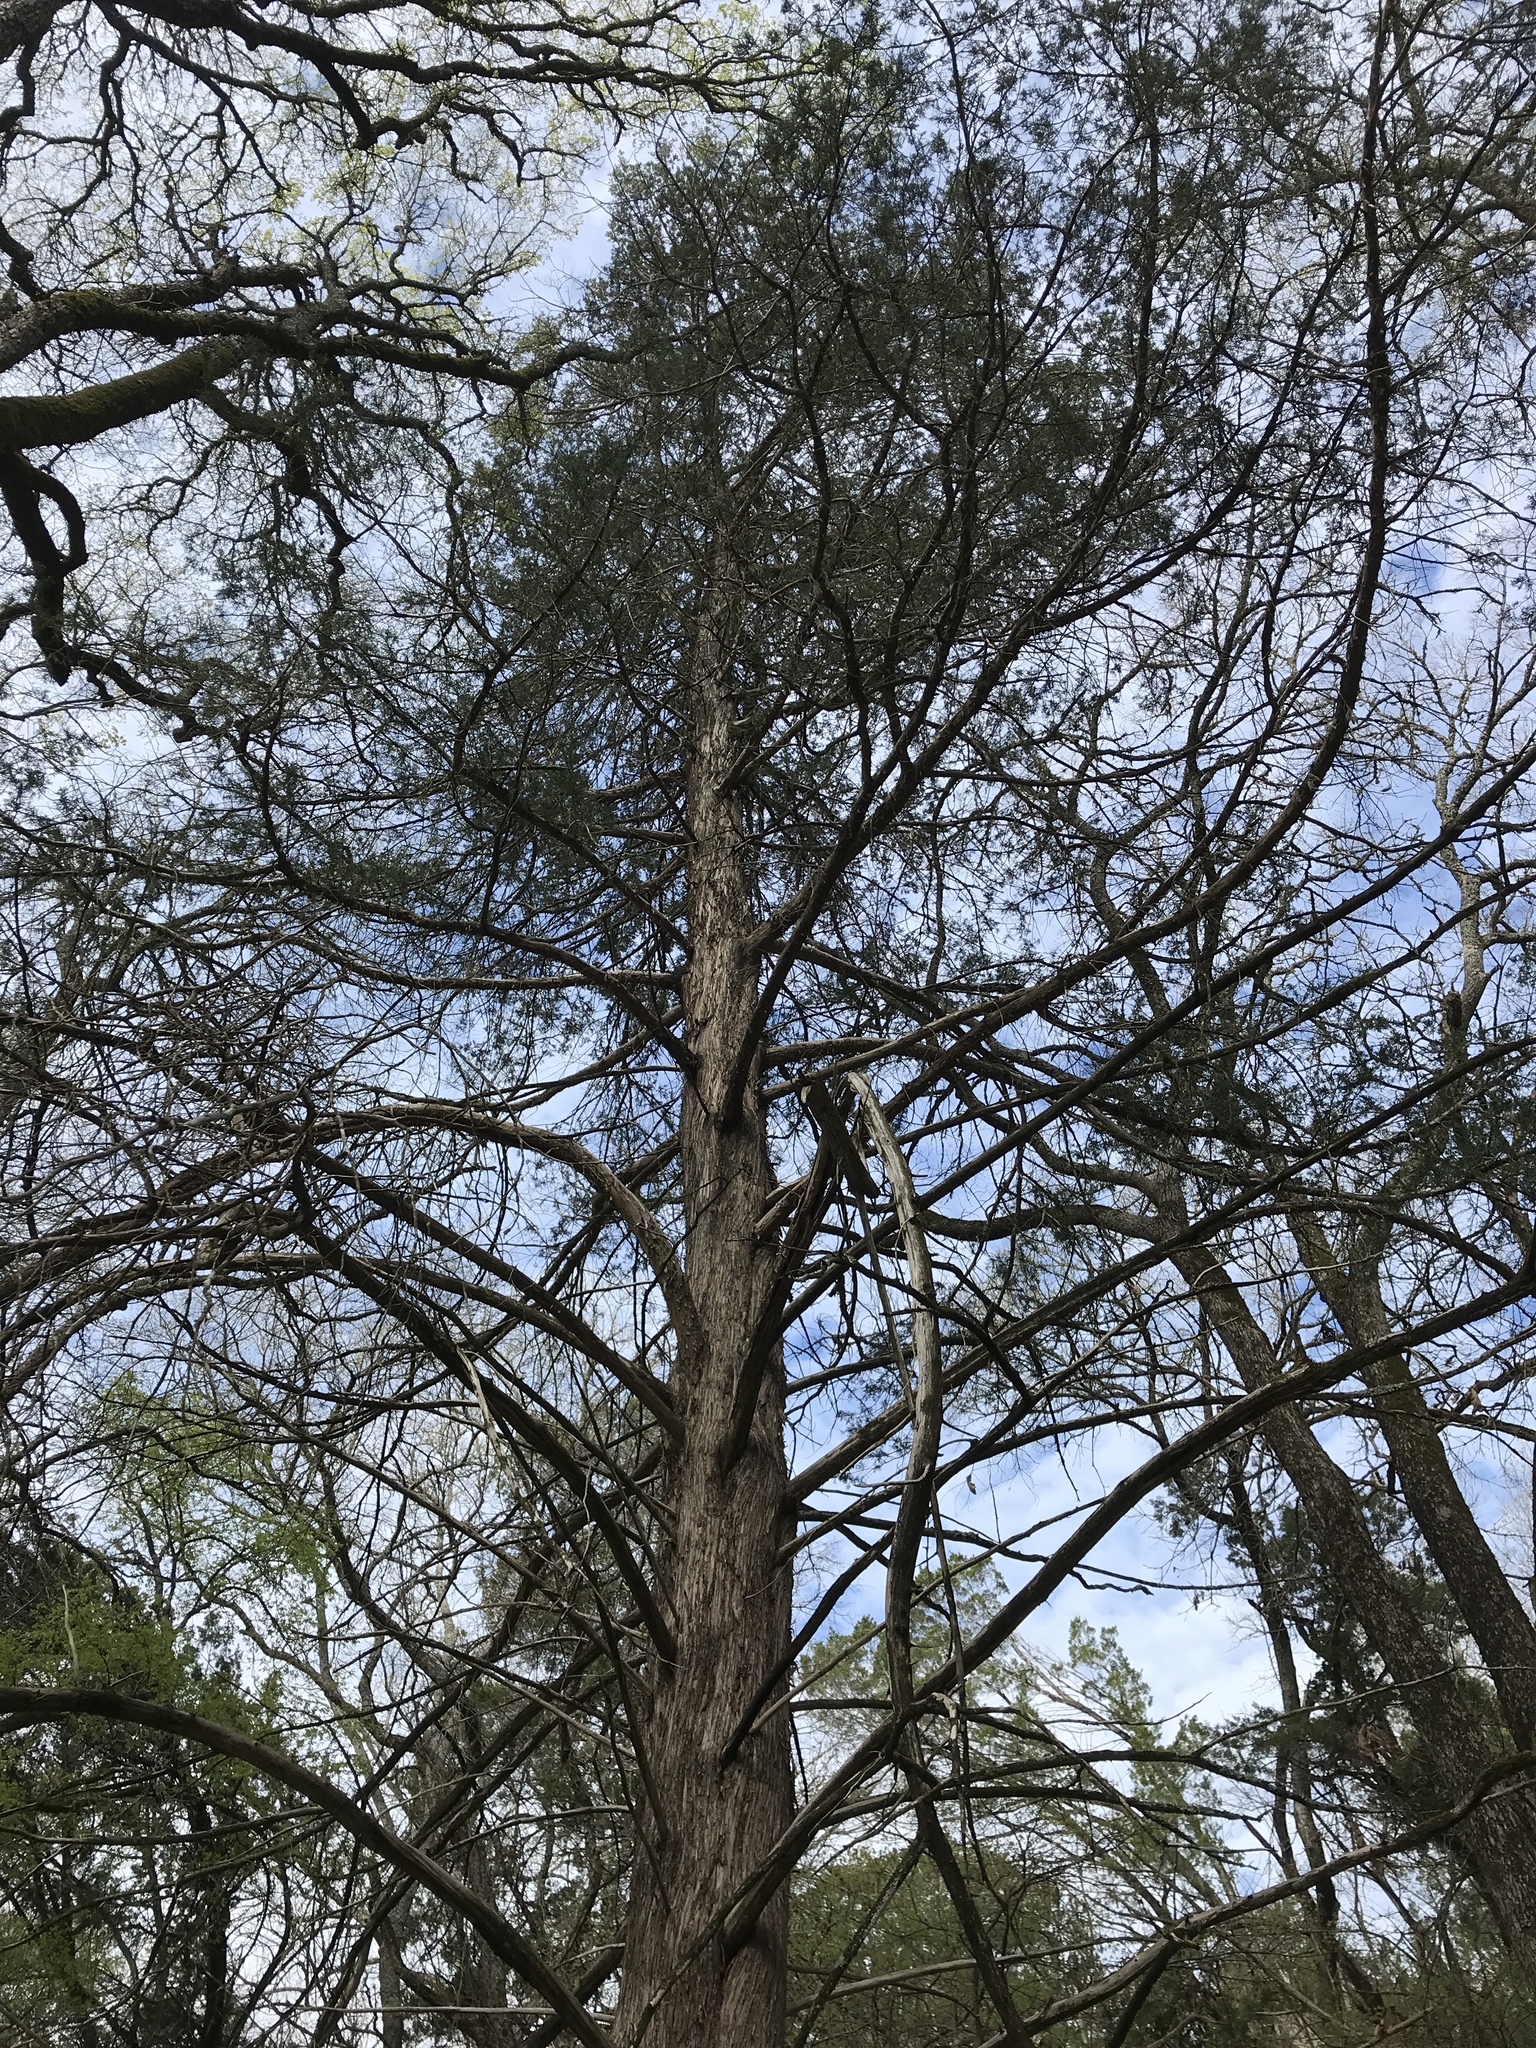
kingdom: Plantae
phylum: Tracheophyta
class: Pinopsida
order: Pinales
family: Cupressaceae
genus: Juniperus
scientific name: Juniperus virginiana
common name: Red juniper
